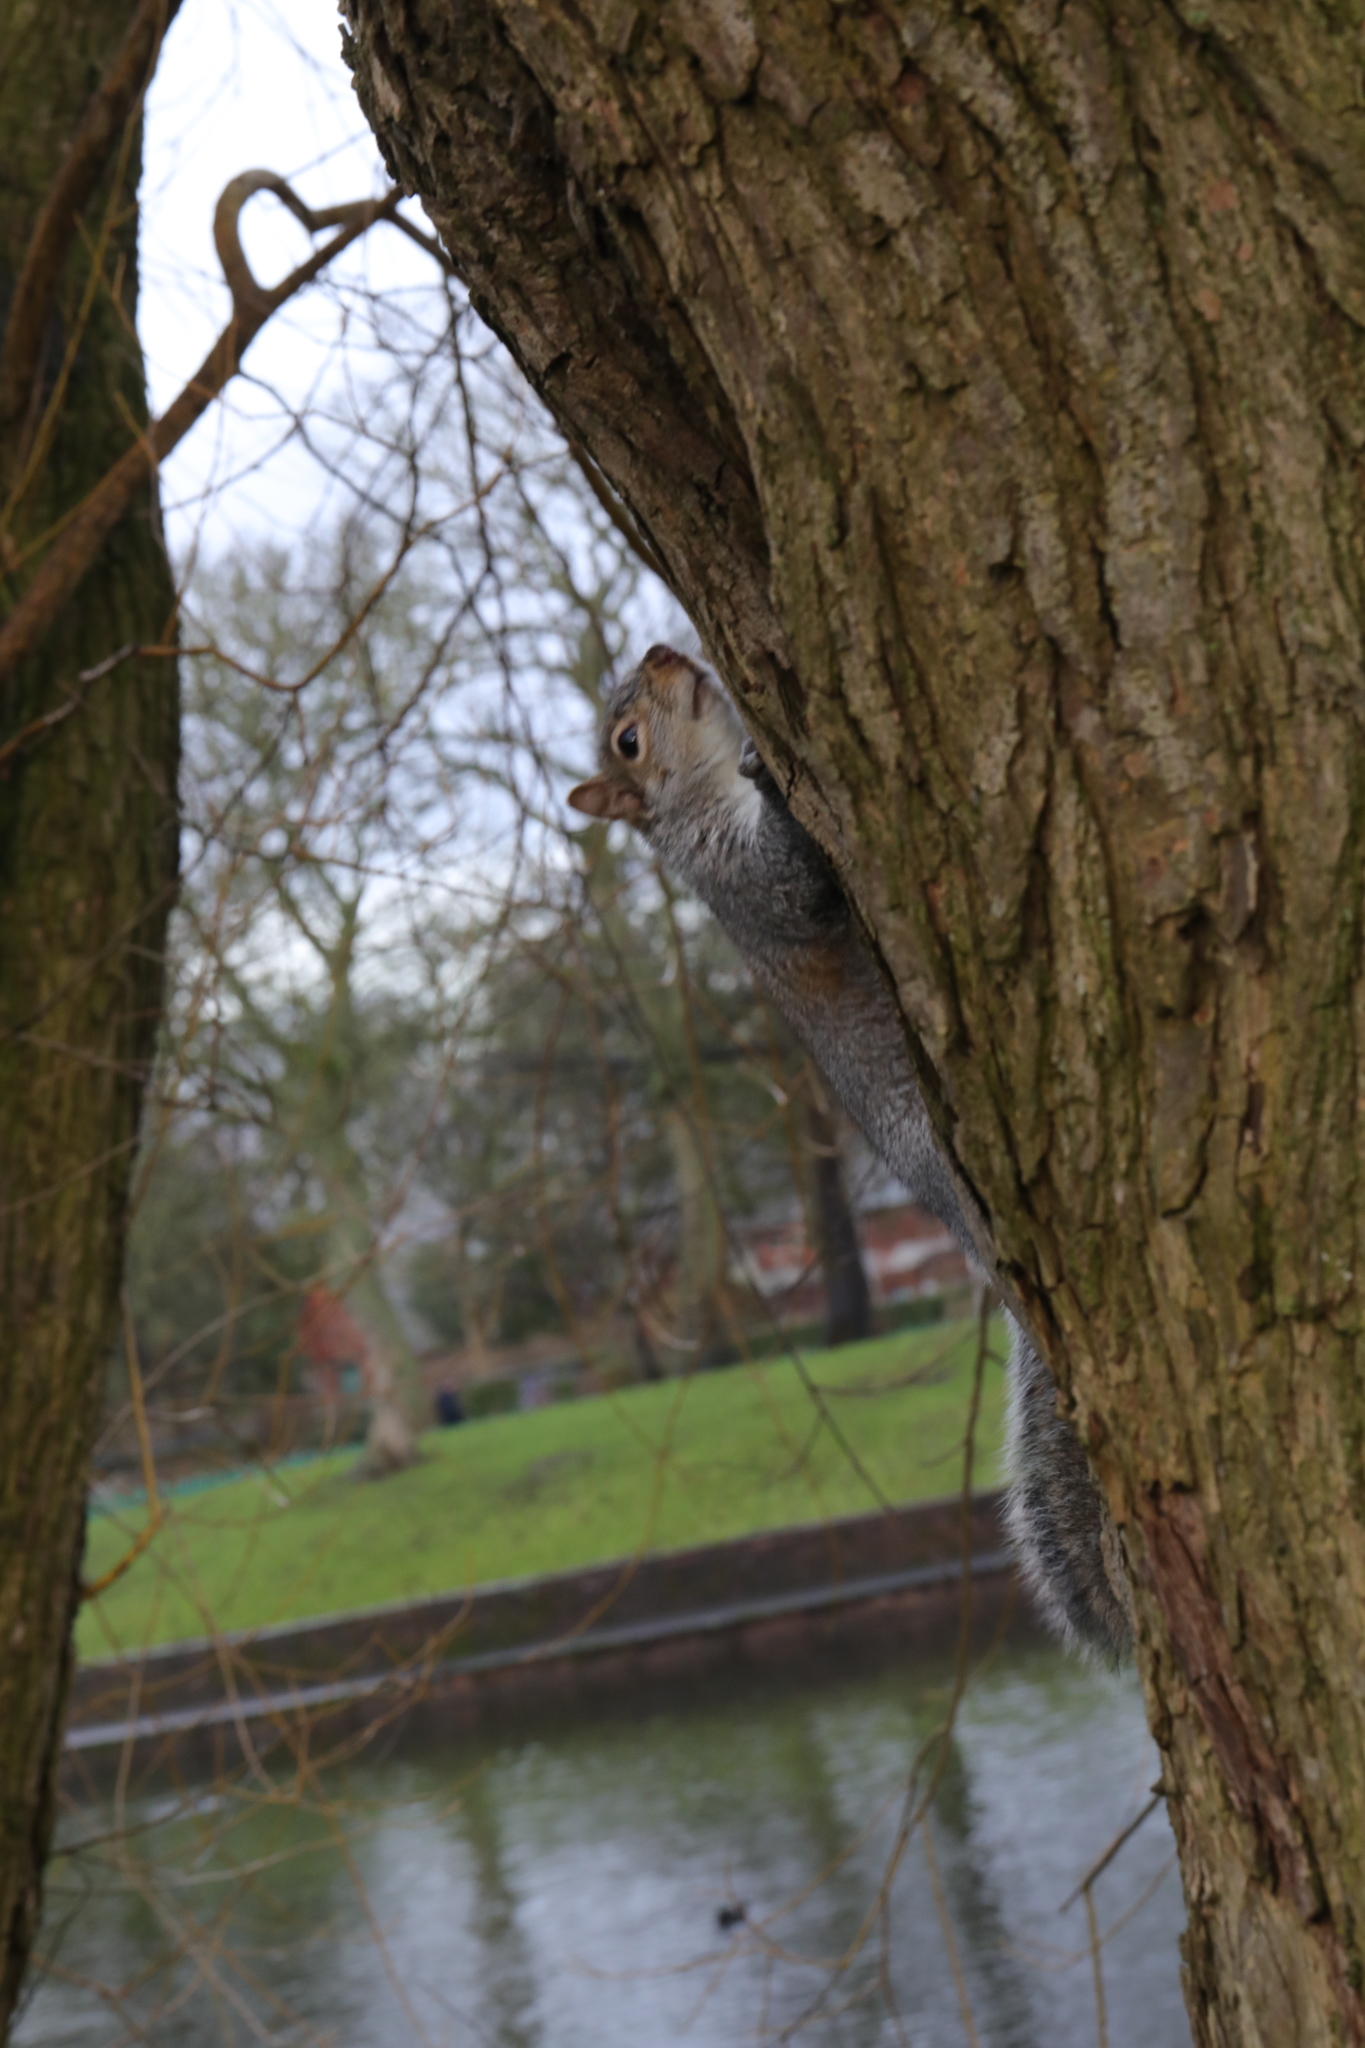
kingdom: Animalia
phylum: Chordata
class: Mammalia
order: Rodentia
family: Sciuridae
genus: Sciurus
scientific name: Sciurus carolinensis
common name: Eastern gray squirrel
